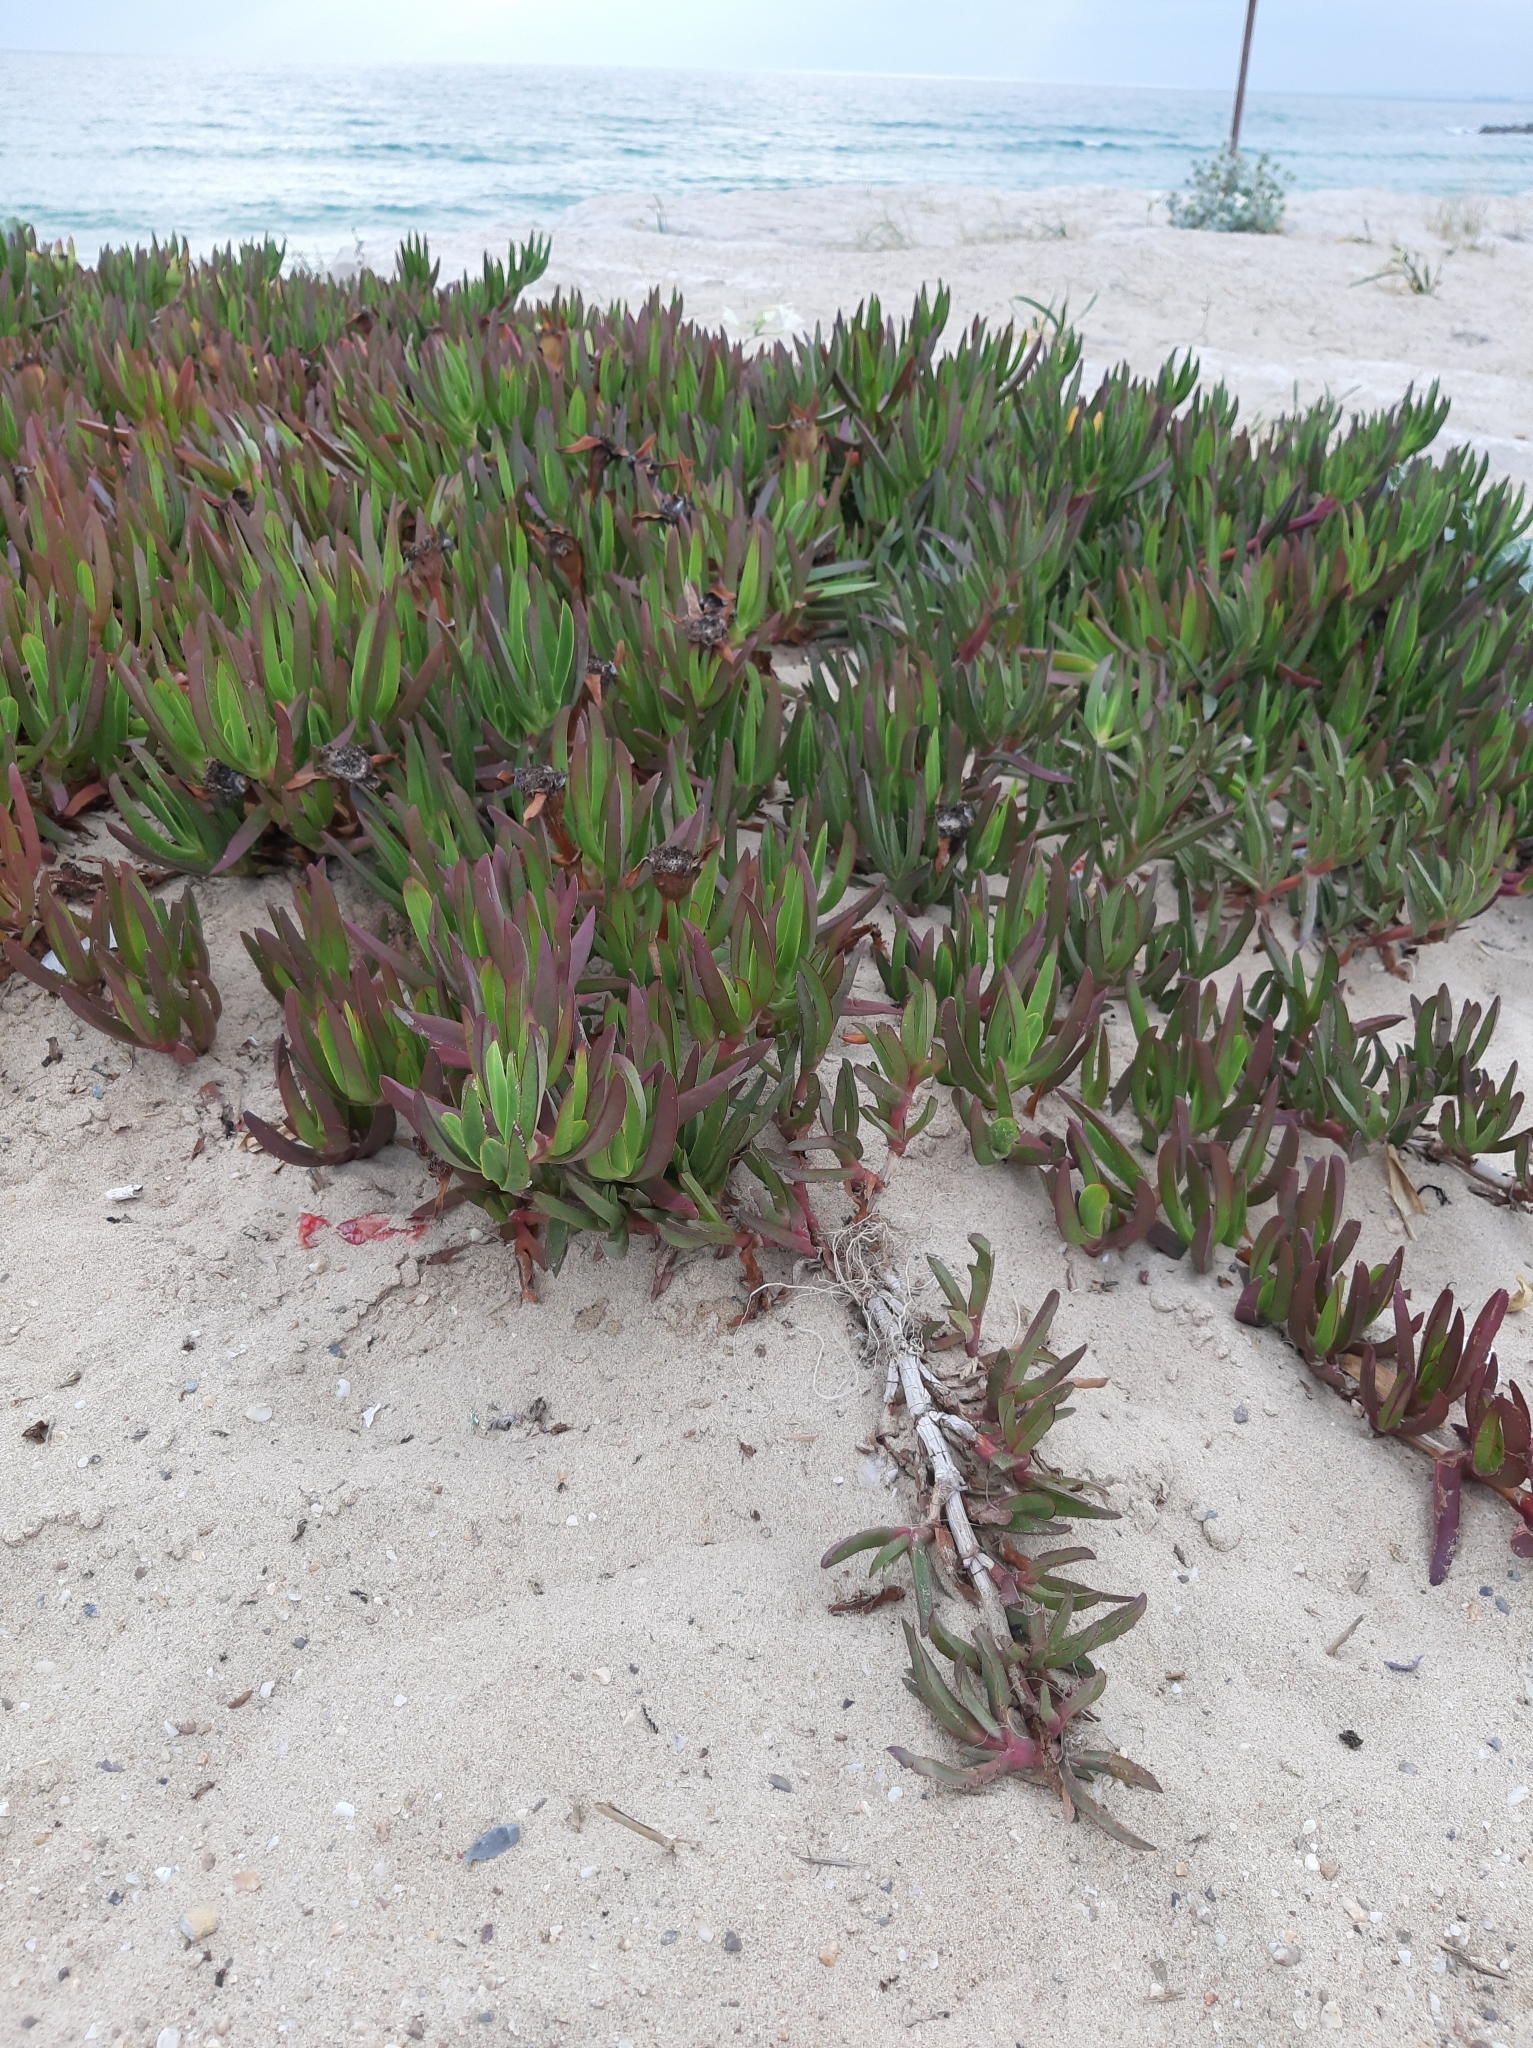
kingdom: Plantae
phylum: Tracheophyta
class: Magnoliopsida
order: Caryophyllales
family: Aizoaceae
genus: Carpobrotus
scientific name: Carpobrotus edulis
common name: Hottentot-fig
